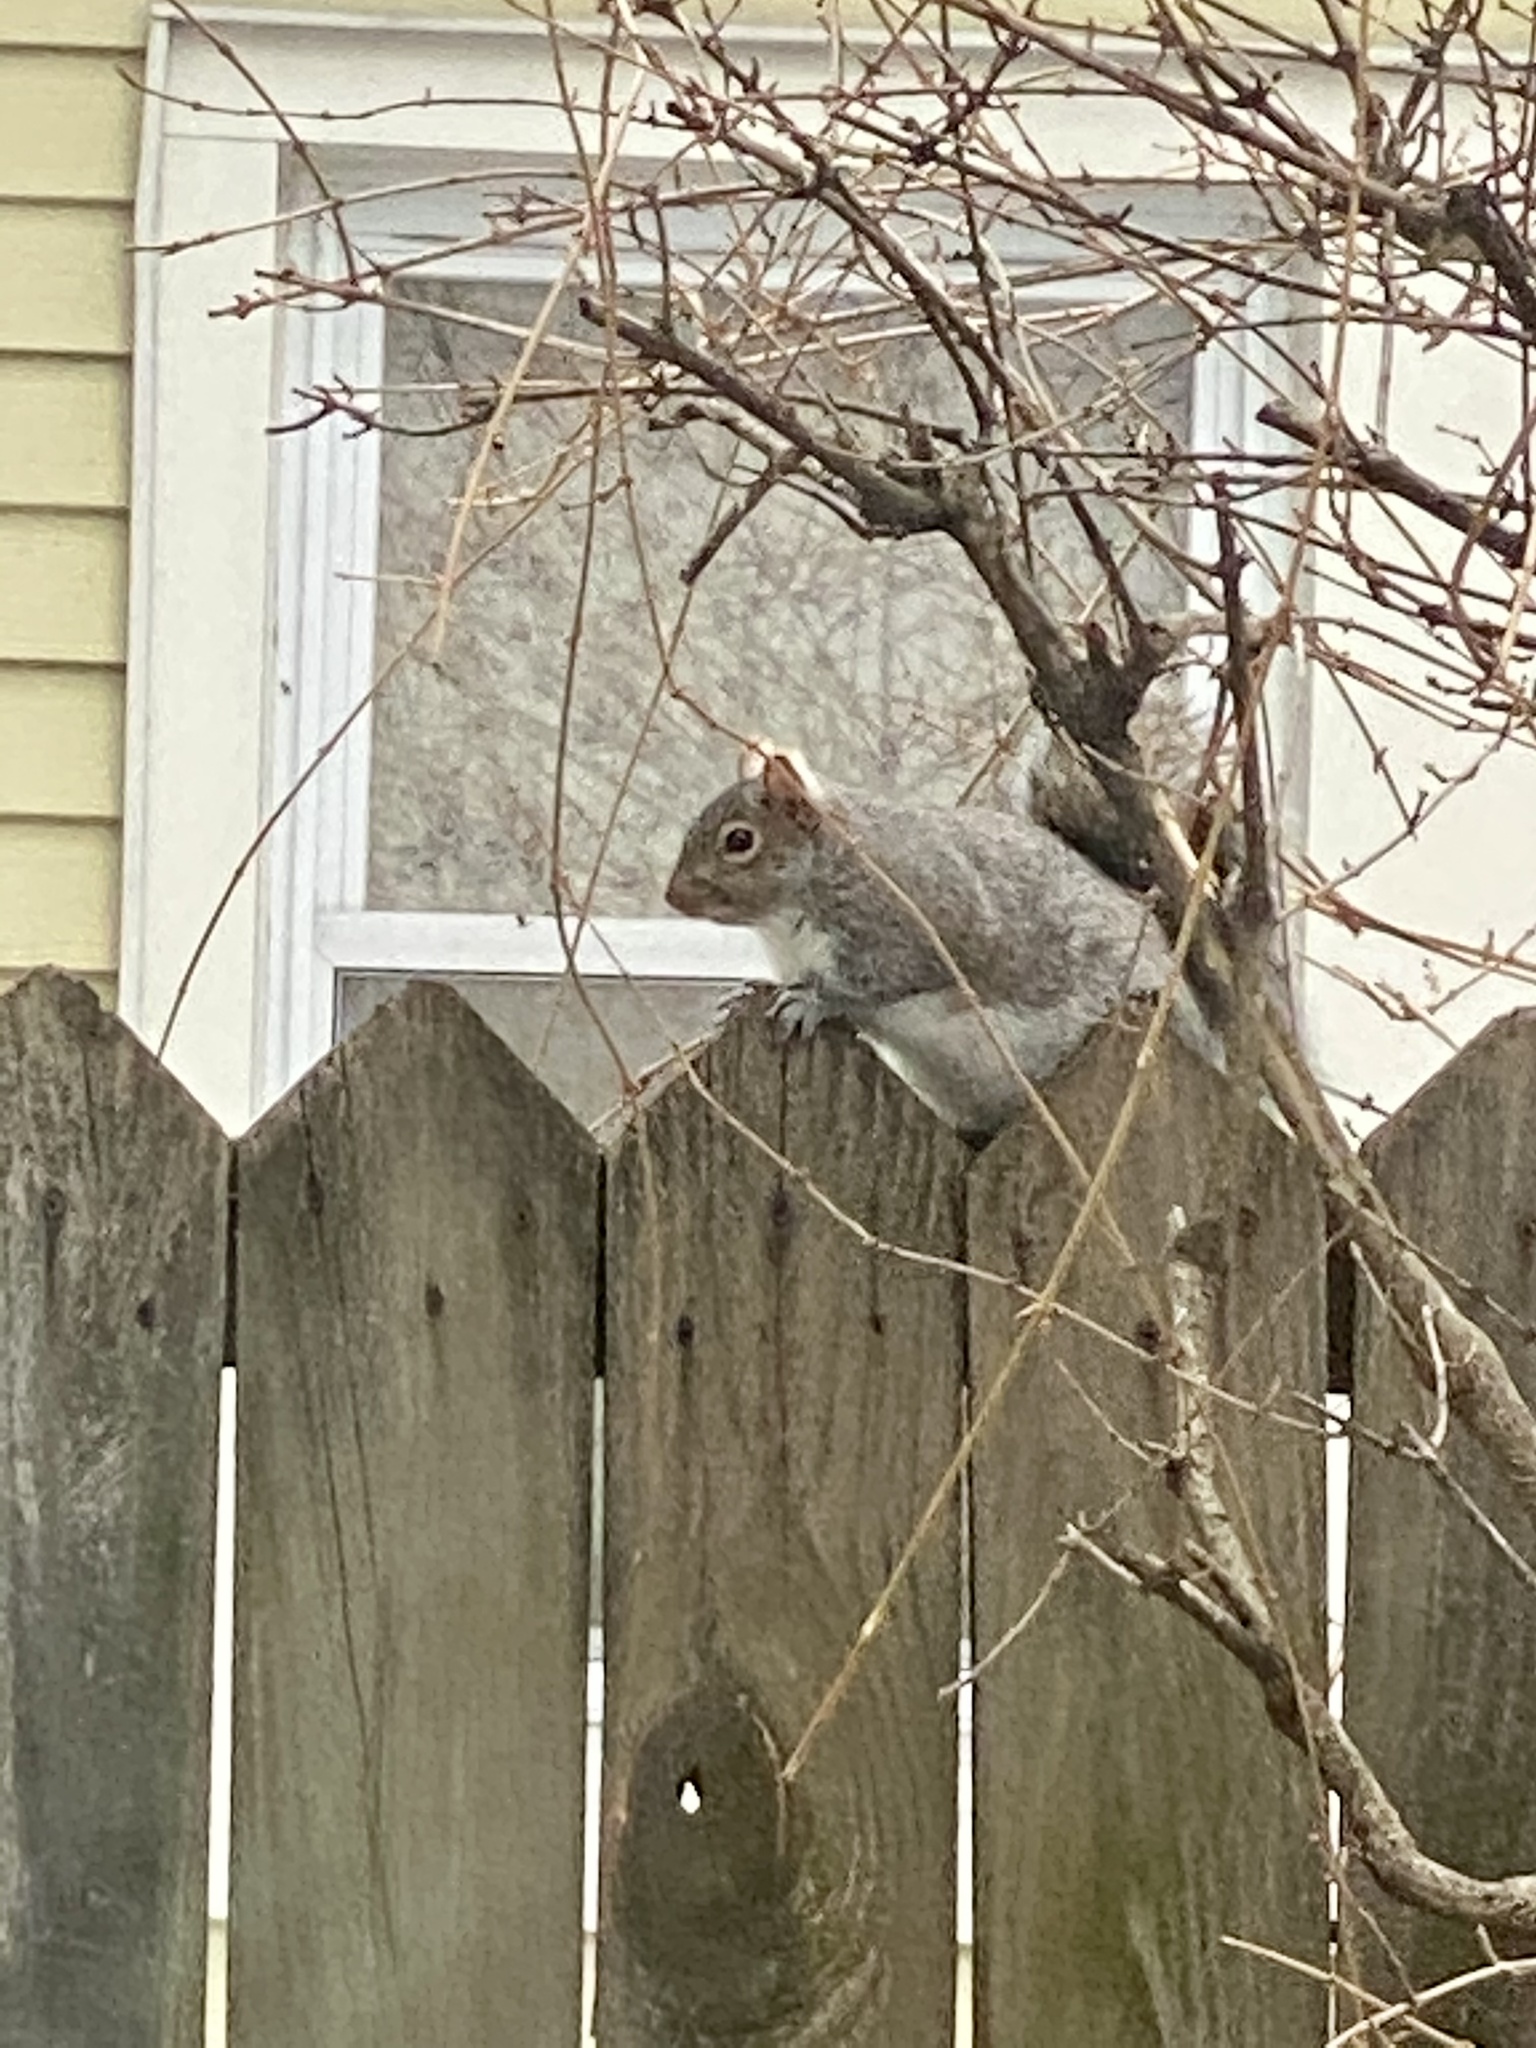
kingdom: Animalia
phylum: Chordata
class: Mammalia
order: Rodentia
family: Sciuridae
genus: Sciurus
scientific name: Sciurus carolinensis
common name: Eastern gray squirrel
